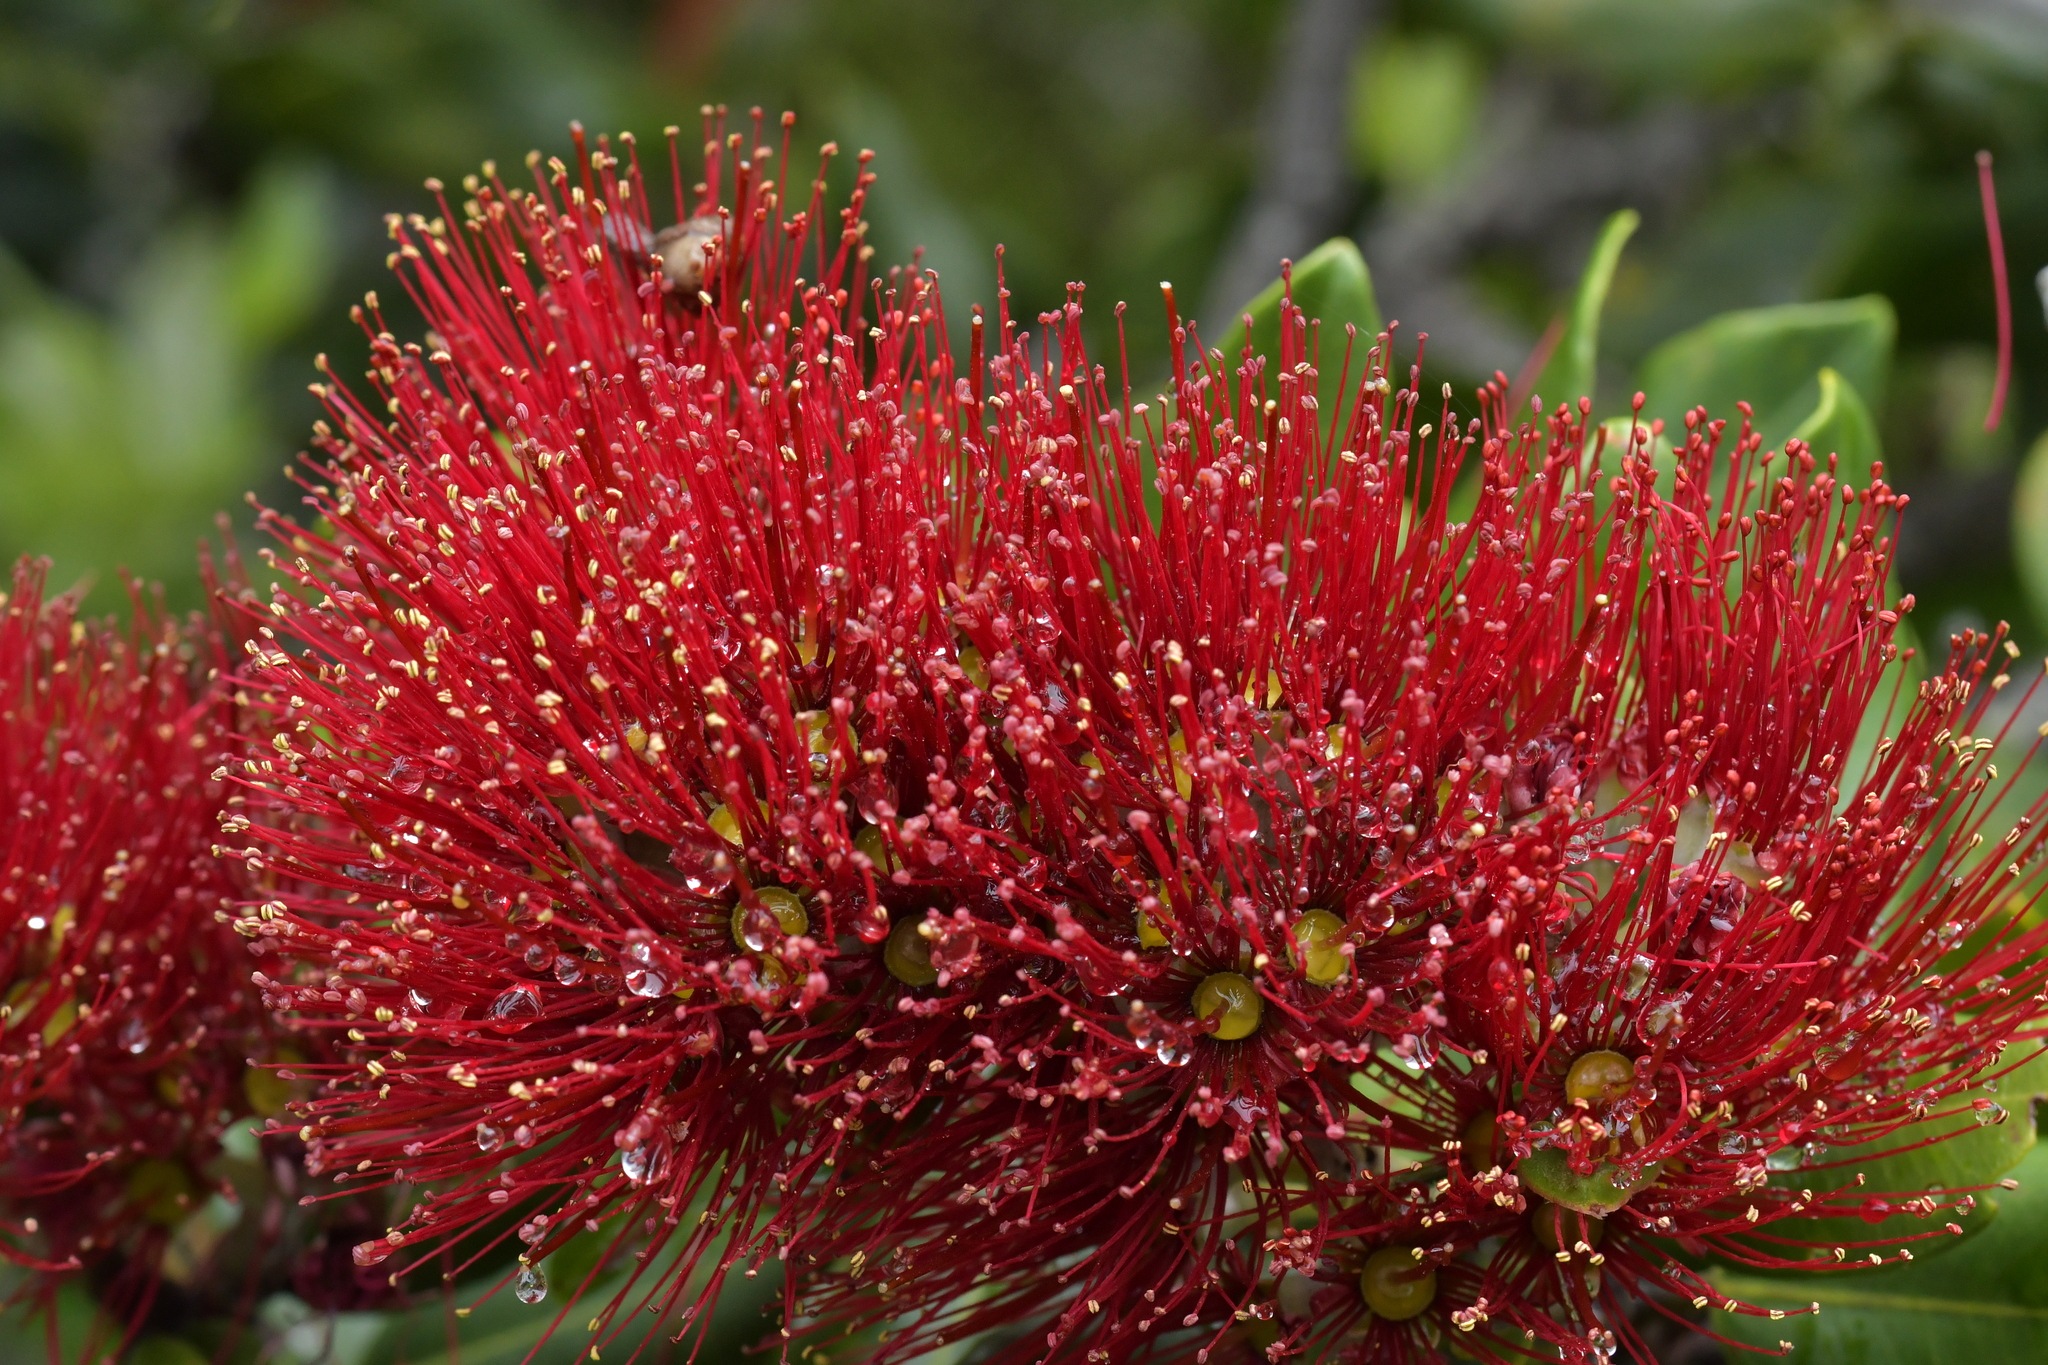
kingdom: Plantae
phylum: Tracheophyta
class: Magnoliopsida
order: Myrtales
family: Myrtaceae
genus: Metrosideros
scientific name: Metrosideros excelsa
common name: New zealand christmastree
